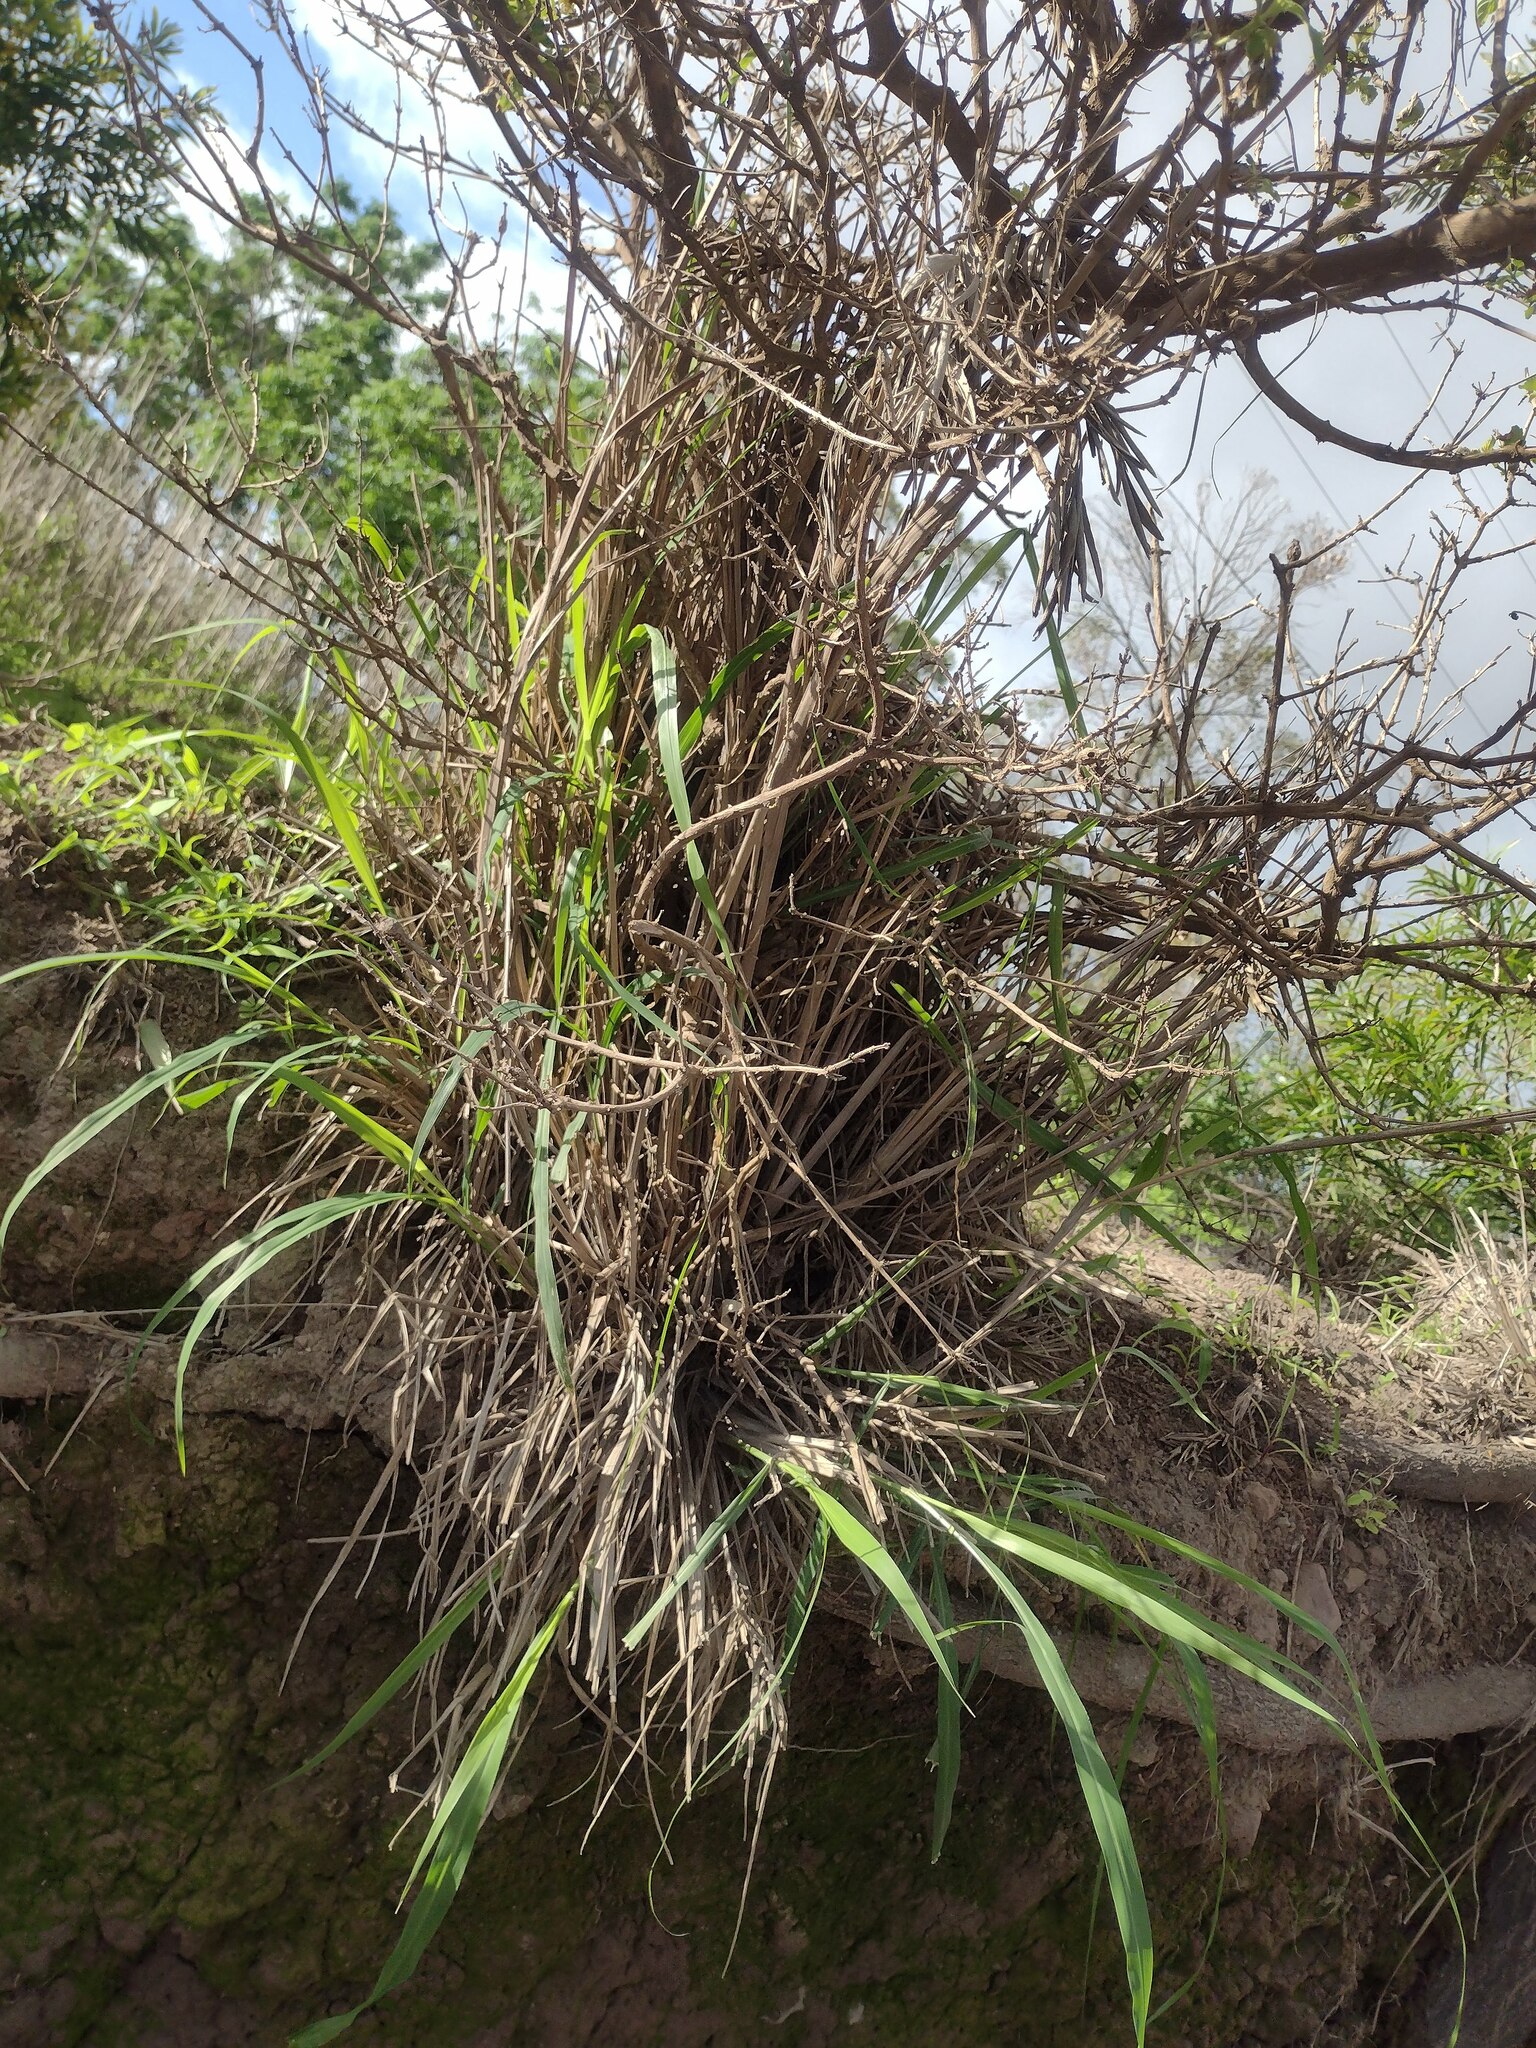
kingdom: Plantae
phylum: Tracheophyta
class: Liliopsida
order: Poales
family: Poaceae
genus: Megathyrsus
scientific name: Megathyrsus maximus
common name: Guineagrass
